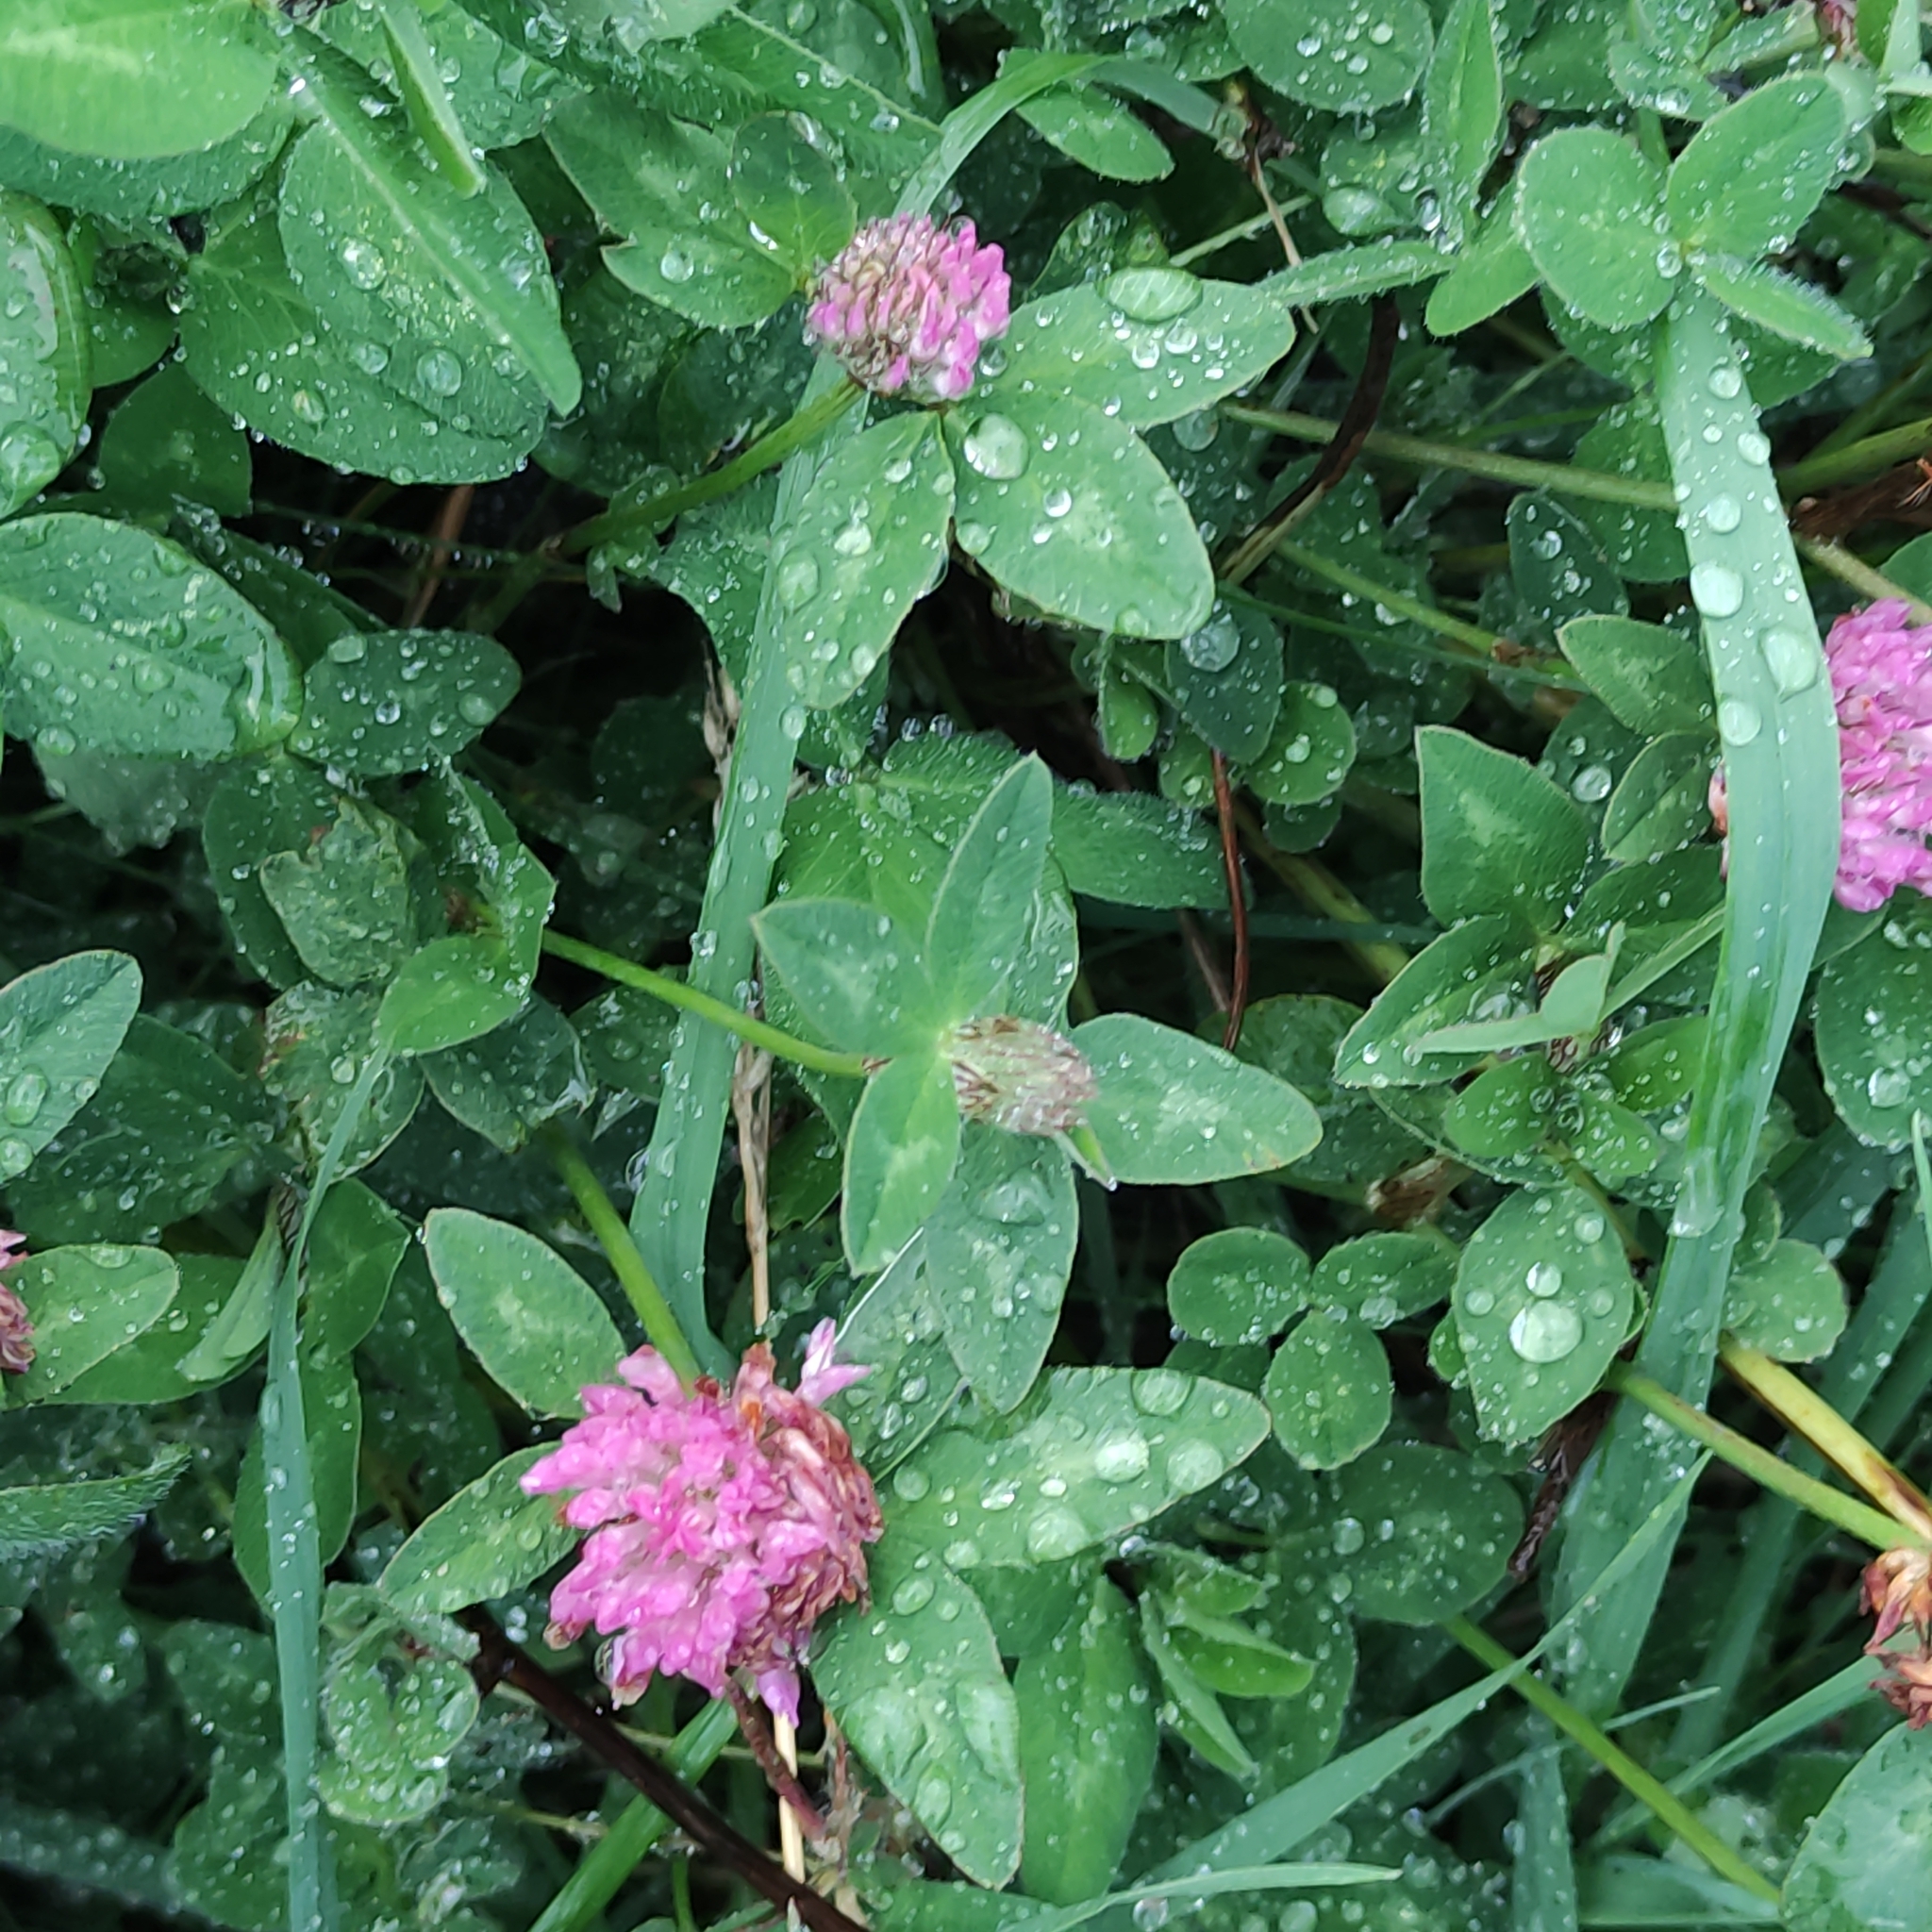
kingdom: Plantae
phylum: Tracheophyta
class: Magnoliopsida
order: Fabales
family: Fabaceae
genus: Trifolium
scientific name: Trifolium pratense
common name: Red clover
